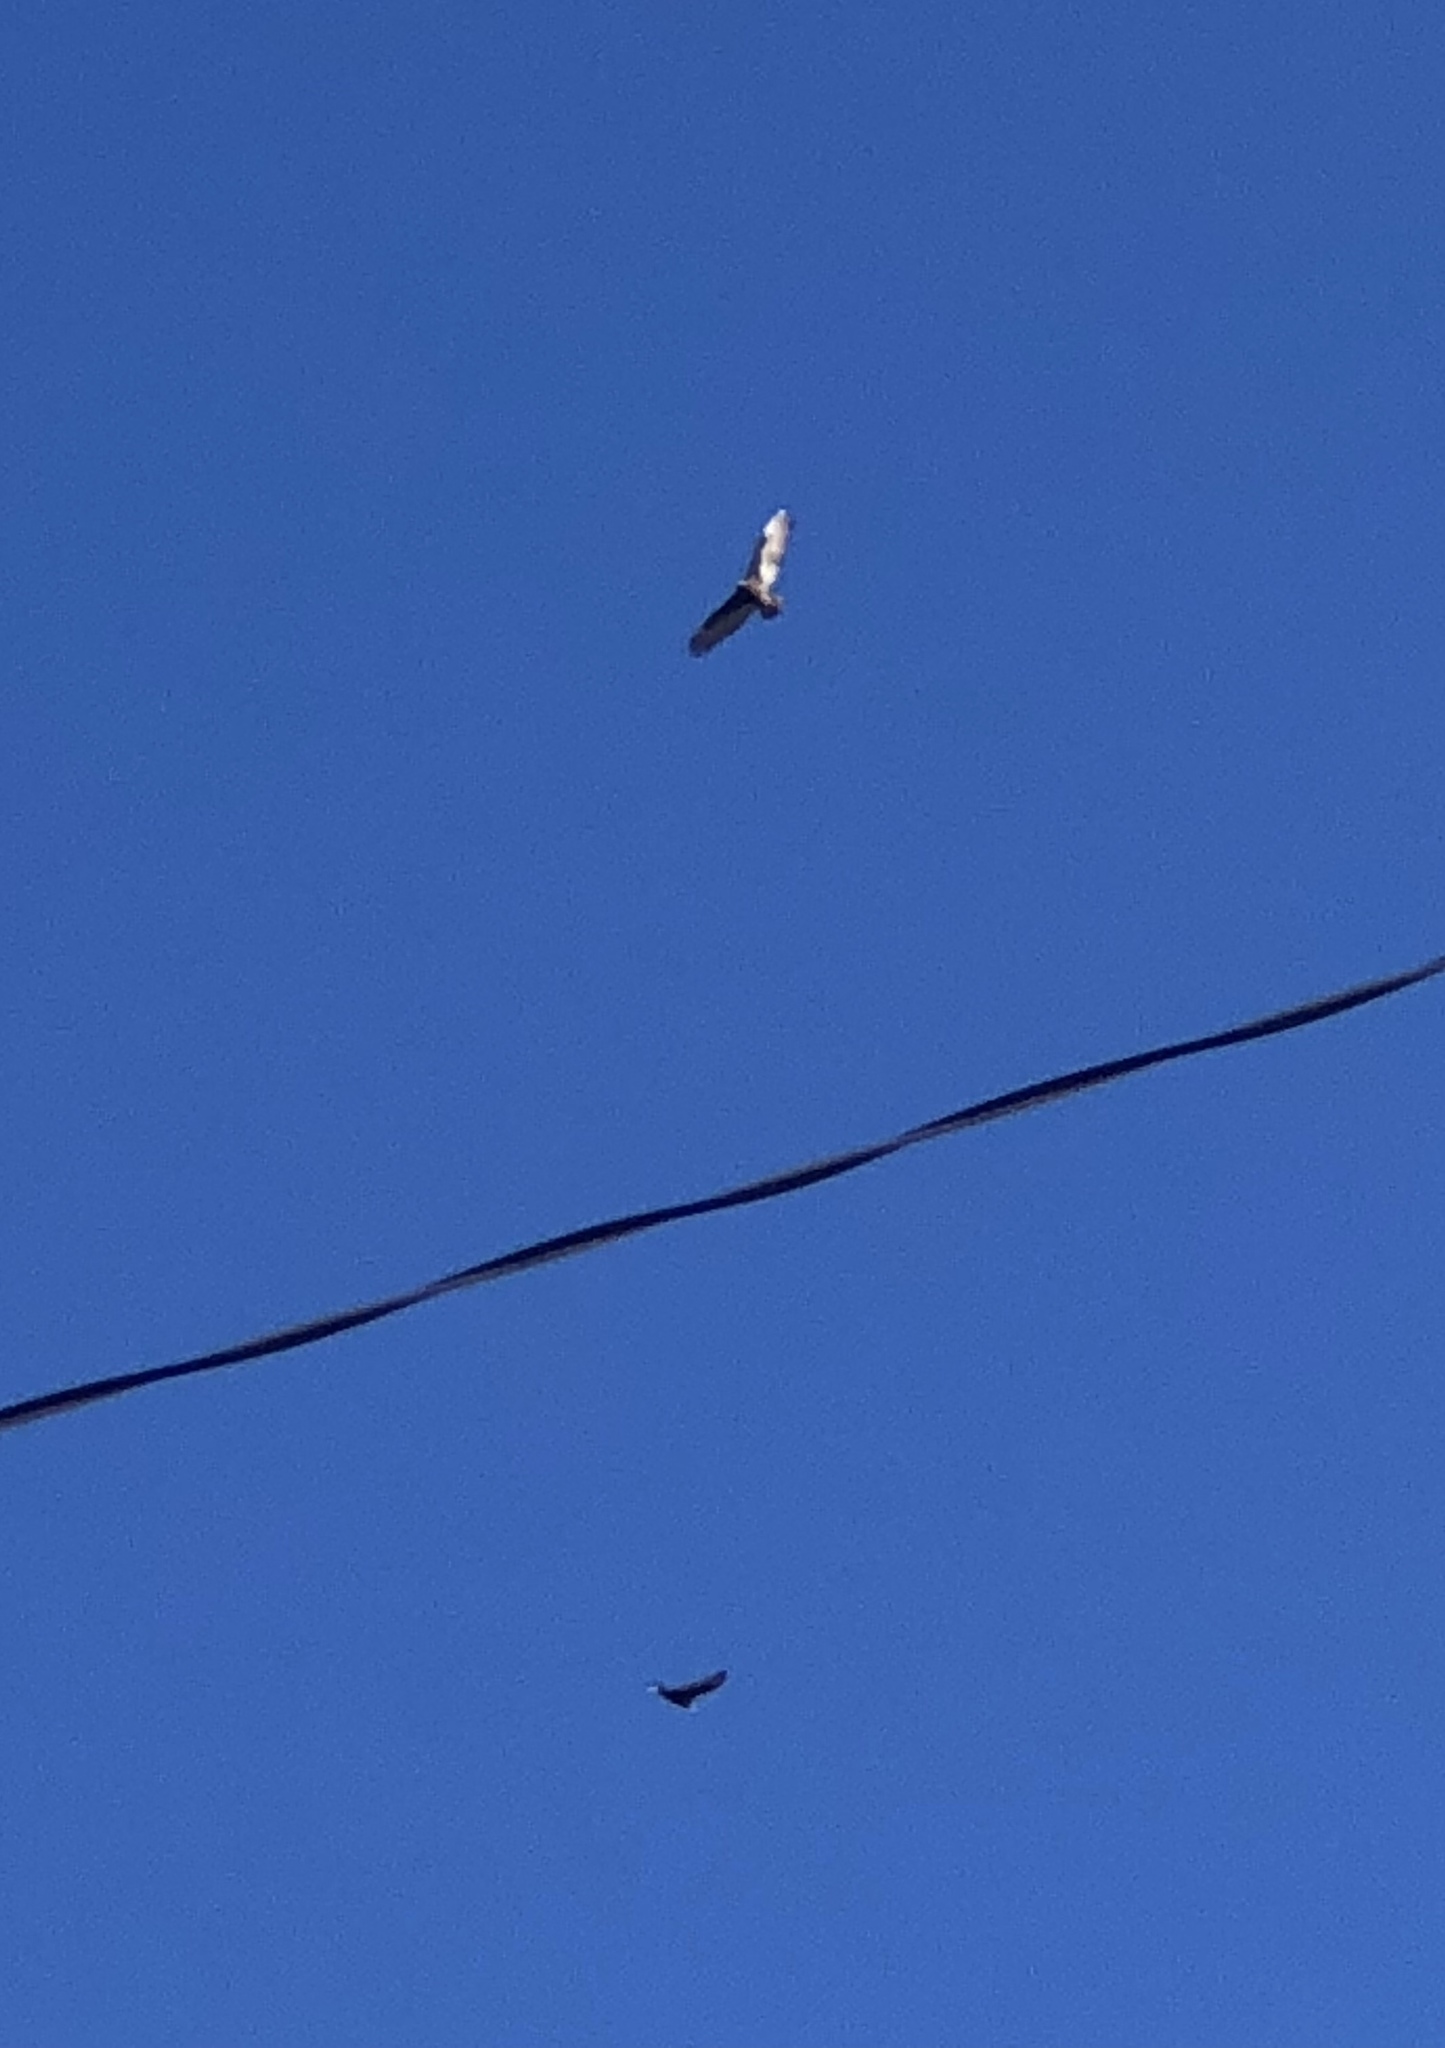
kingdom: Animalia
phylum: Chordata
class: Aves
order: Accipitriformes
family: Cathartidae
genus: Cathartes
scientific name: Cathartes aura
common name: Turkey vulture
